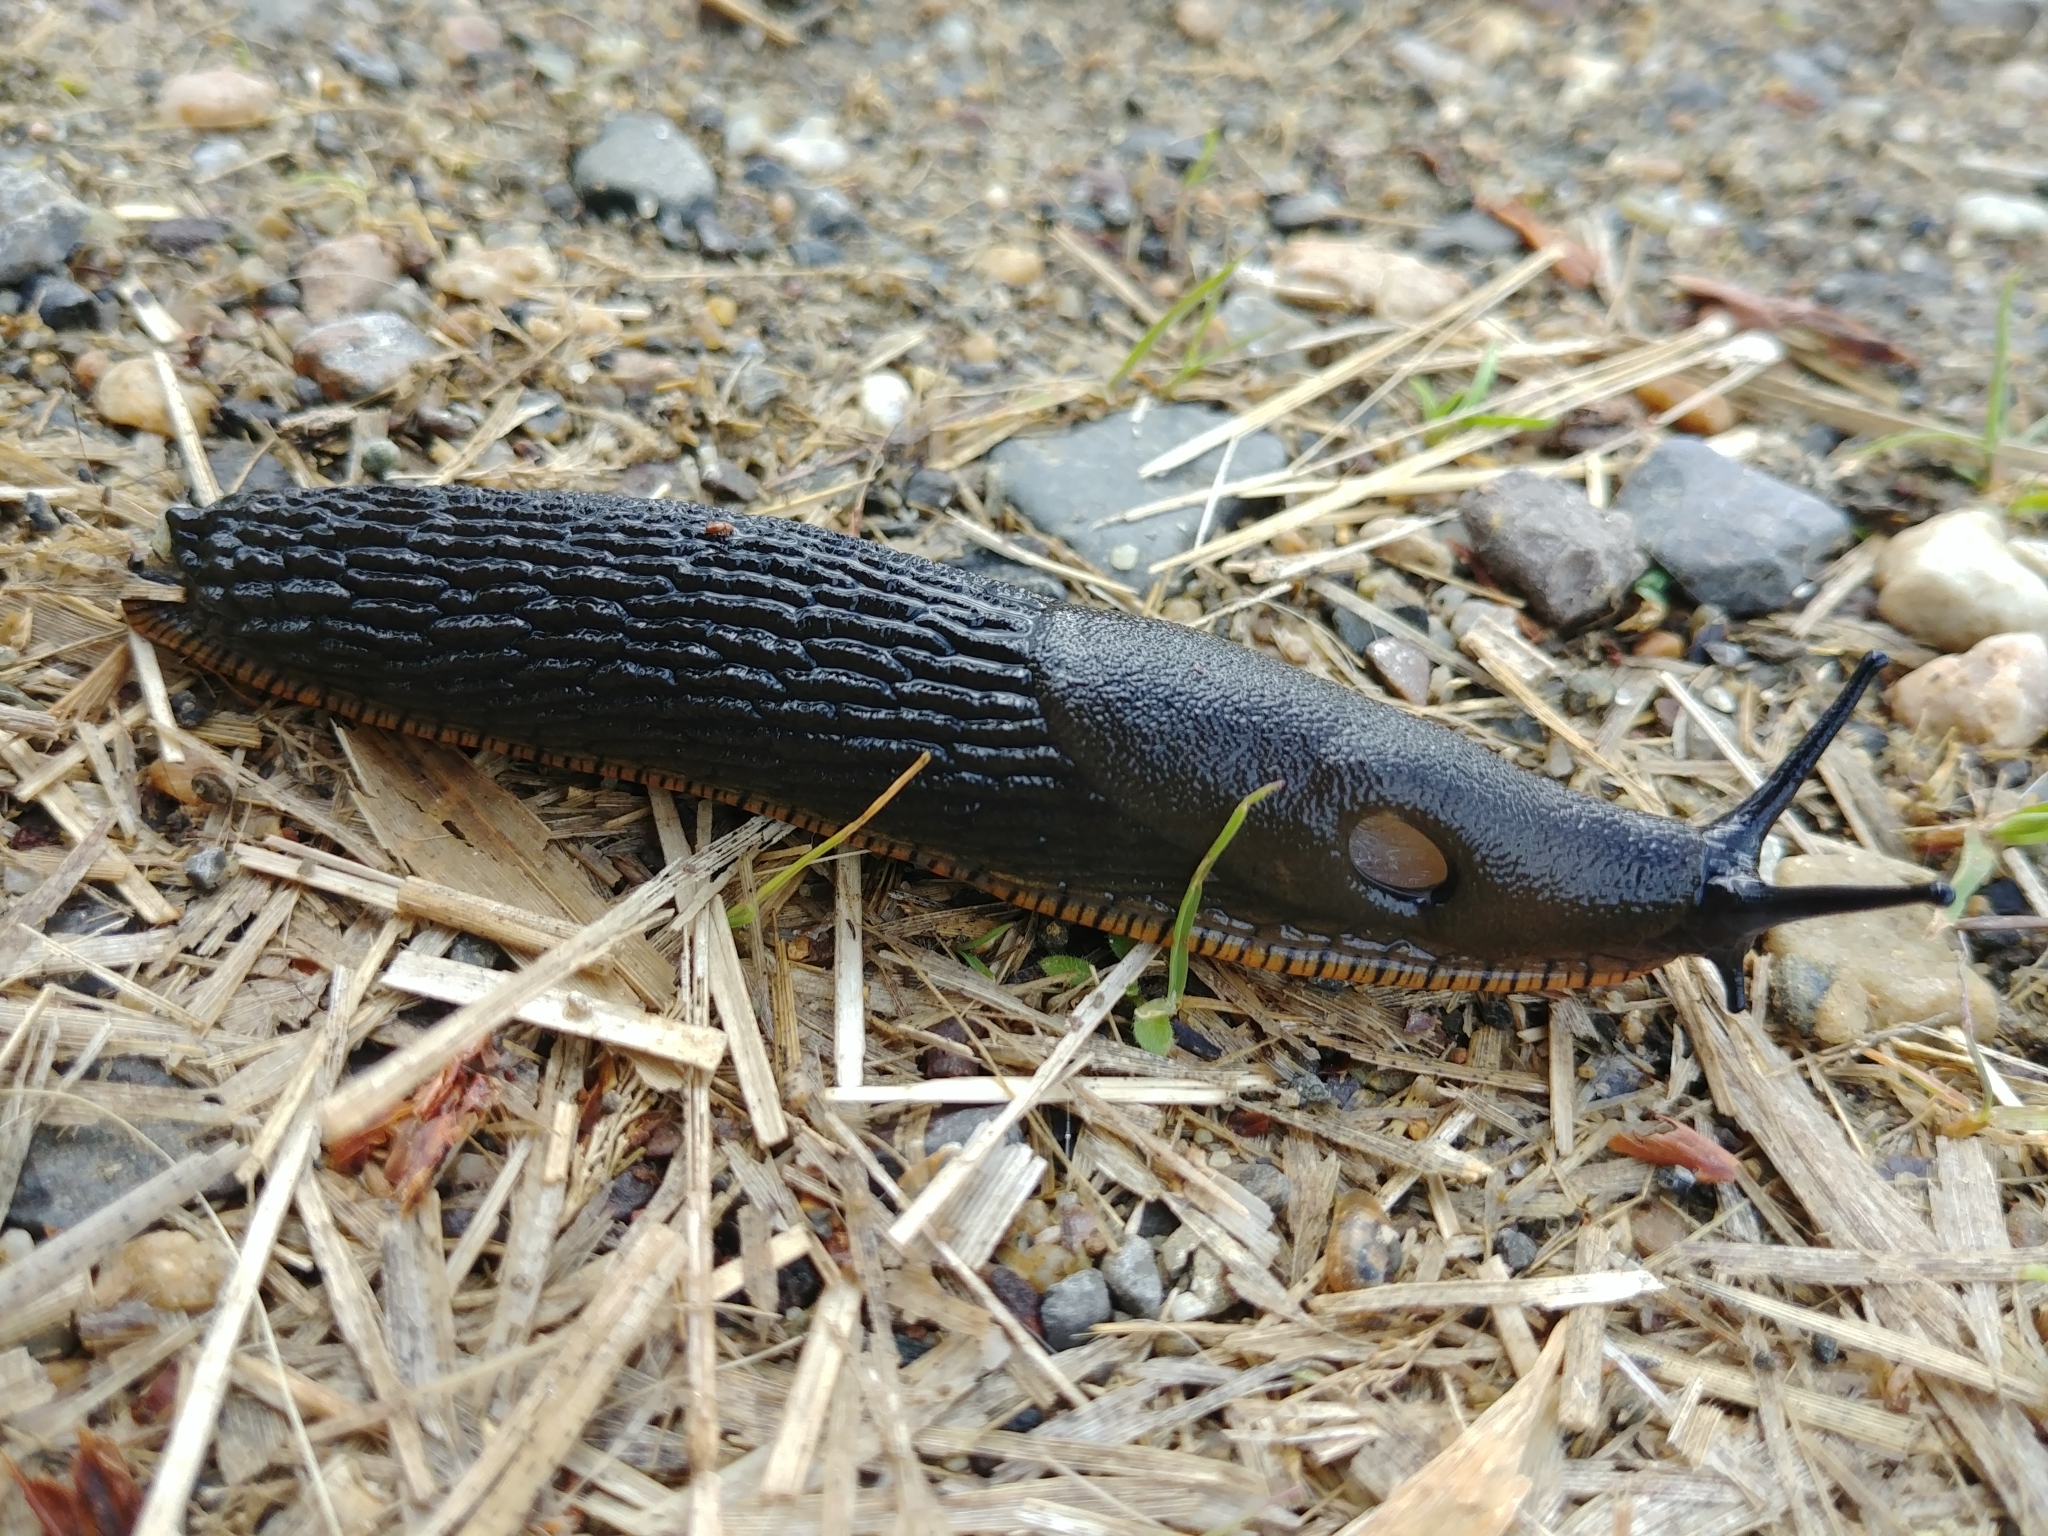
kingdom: Animalia
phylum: Mollusca
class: Gastropoda
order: Stylommatophora
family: Arionidae
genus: Arion
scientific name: Arion rufus
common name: Chocolate arion
